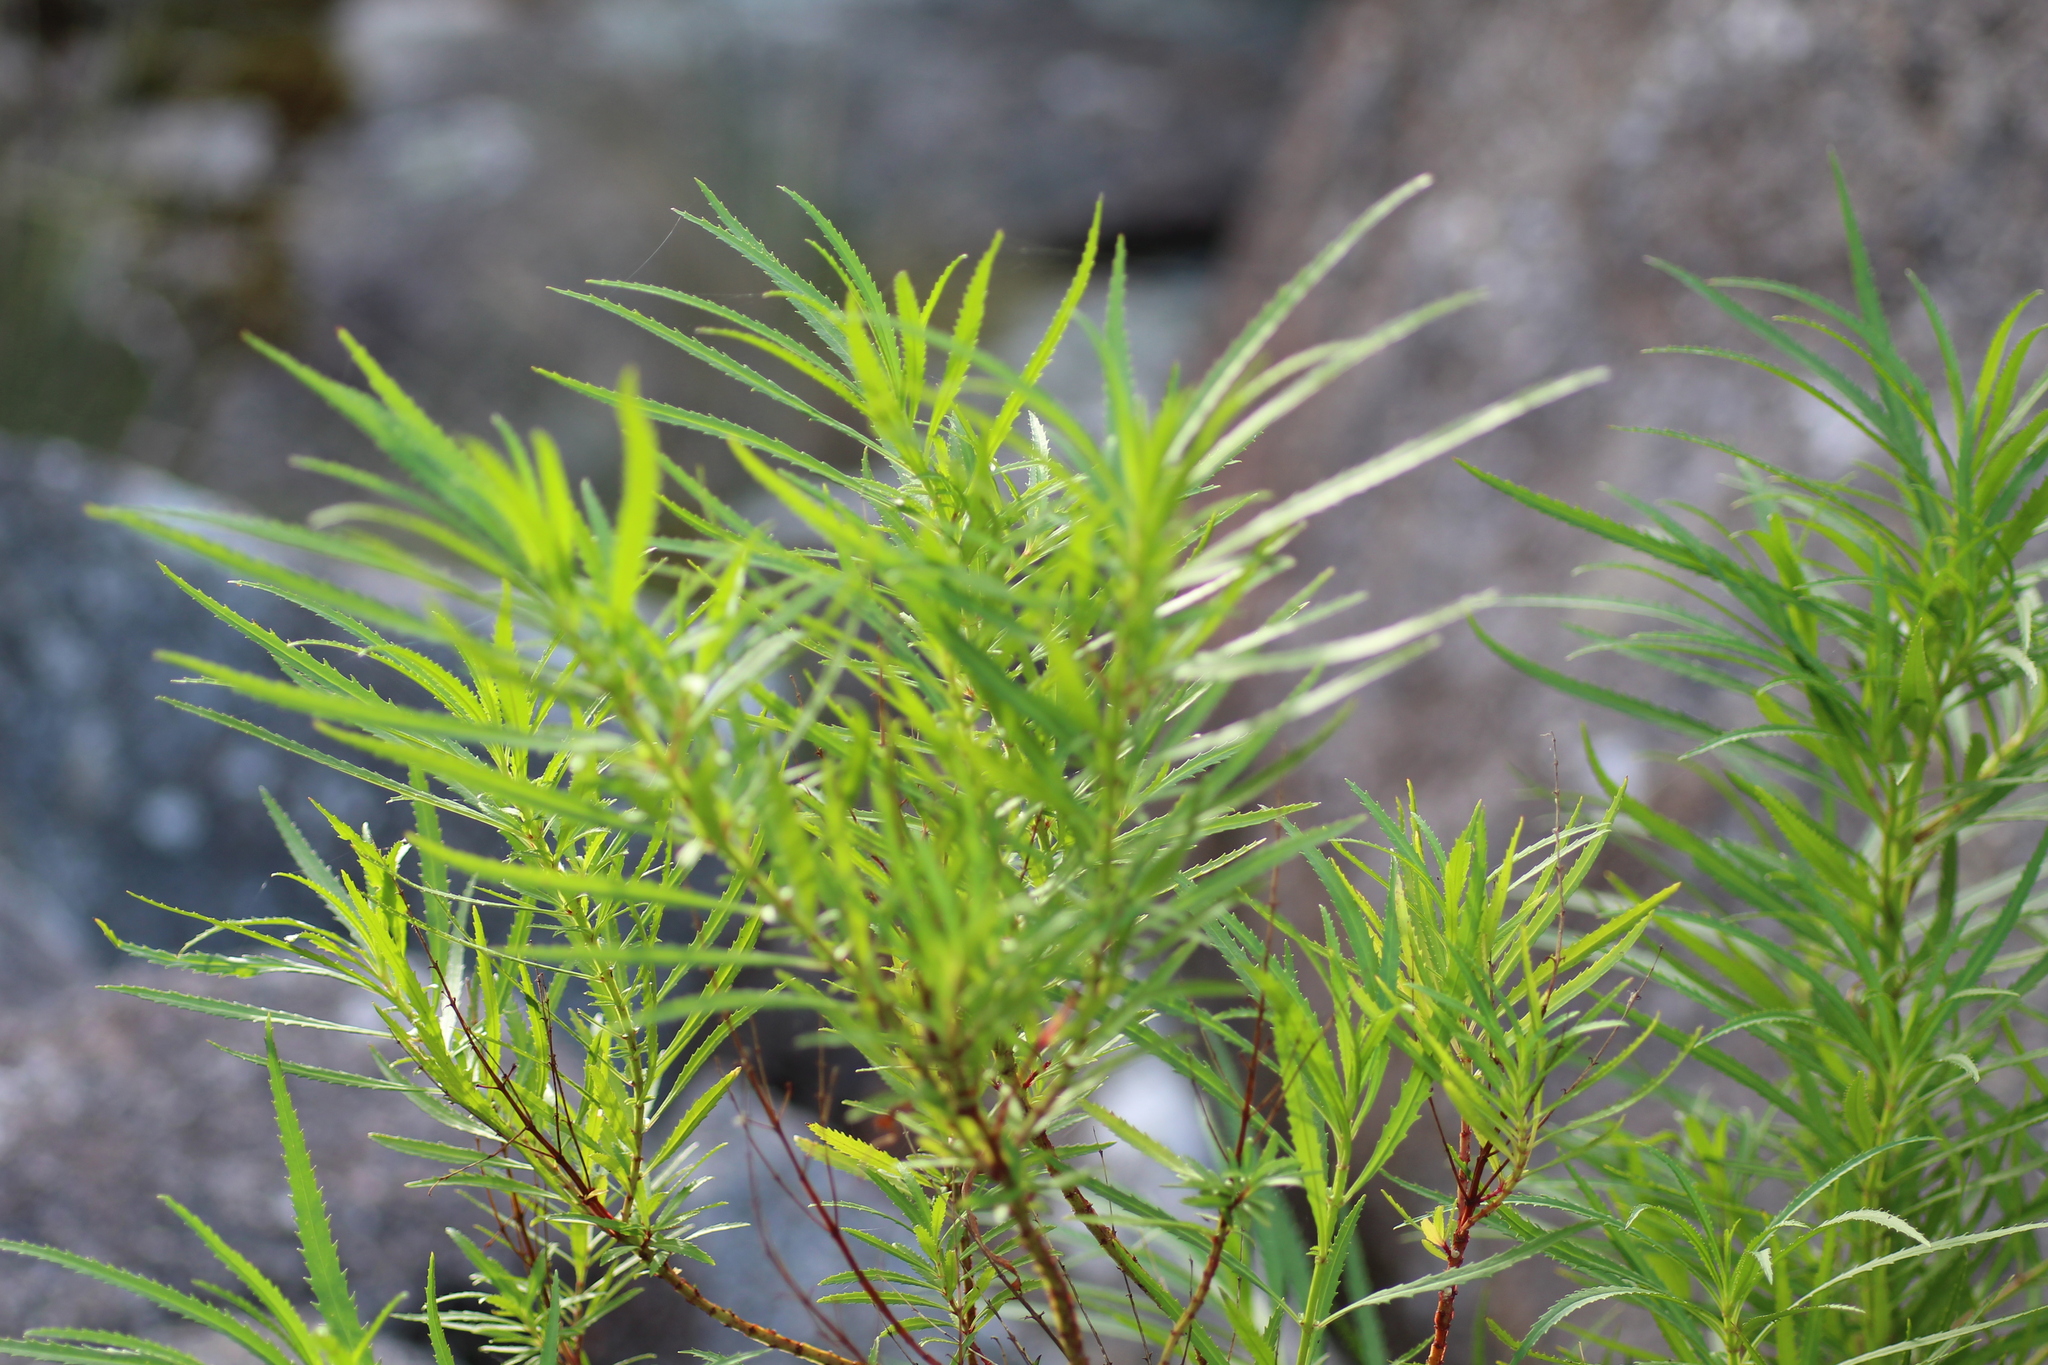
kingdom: Plantae
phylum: Tracheophyta
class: Magnoliopsida
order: Saxifragales
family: Haloragaceae
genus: Glischrocaryon
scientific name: Glischrocaryon racemosum
